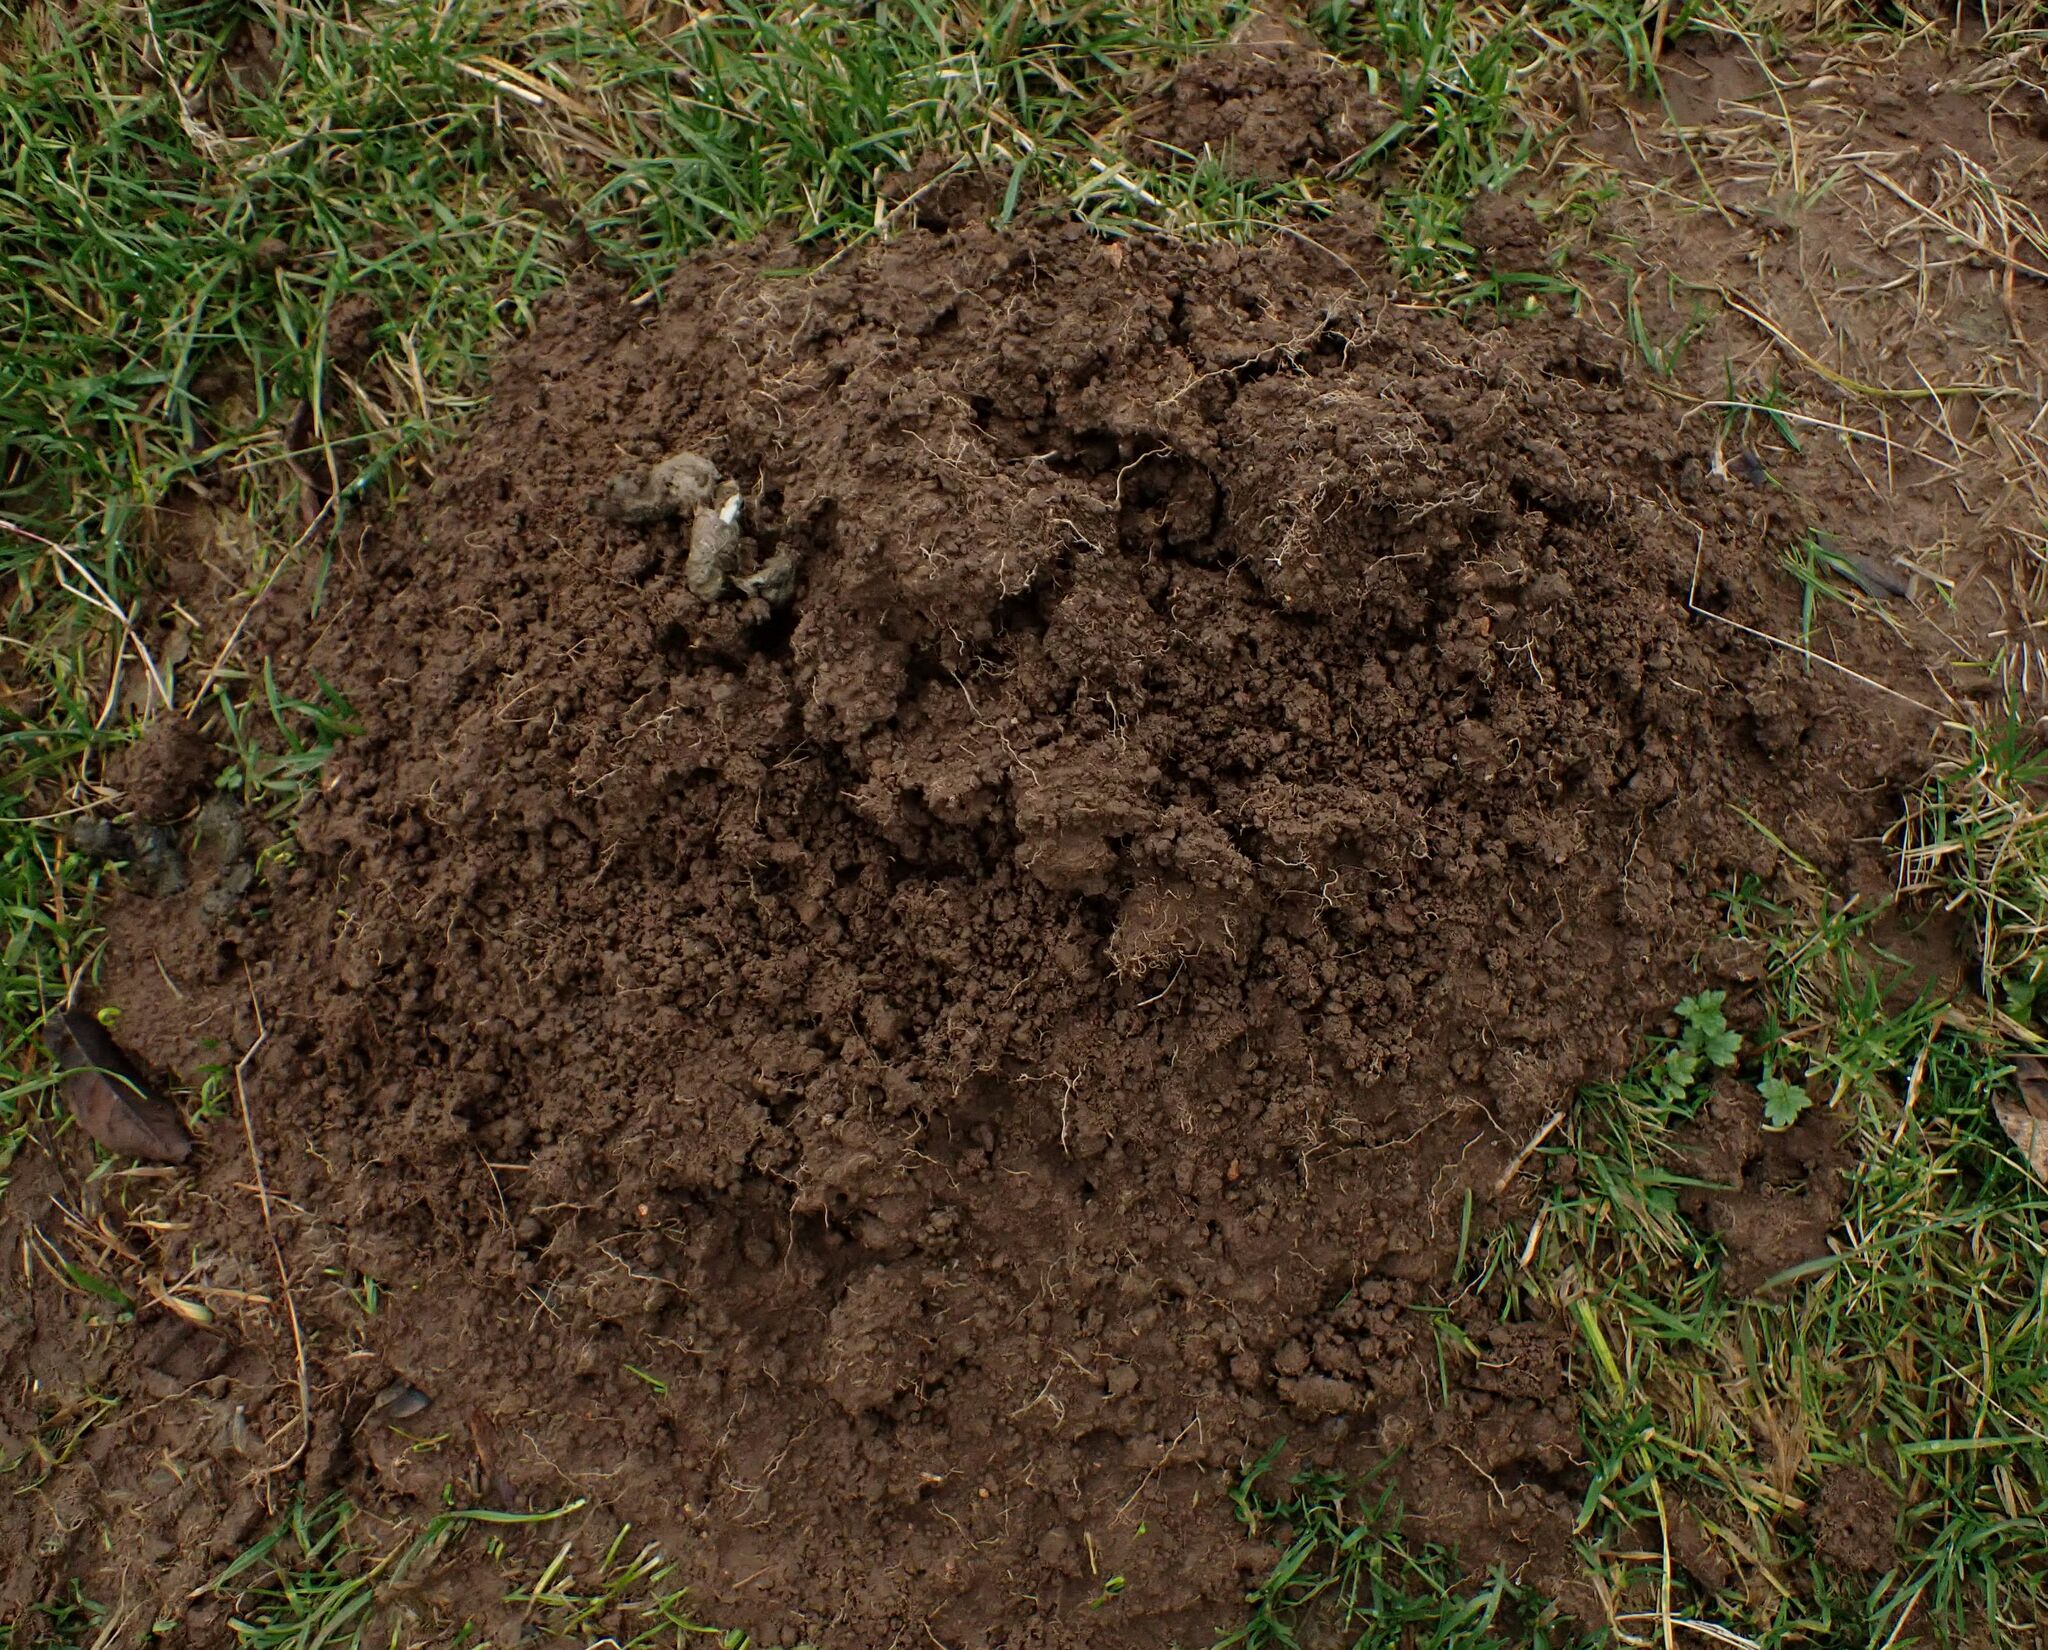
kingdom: Animalia
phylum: Chordata
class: Mammalia
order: Soricomorpha
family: Talpidae
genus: Talpa
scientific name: Talpa europaea
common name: European mole
